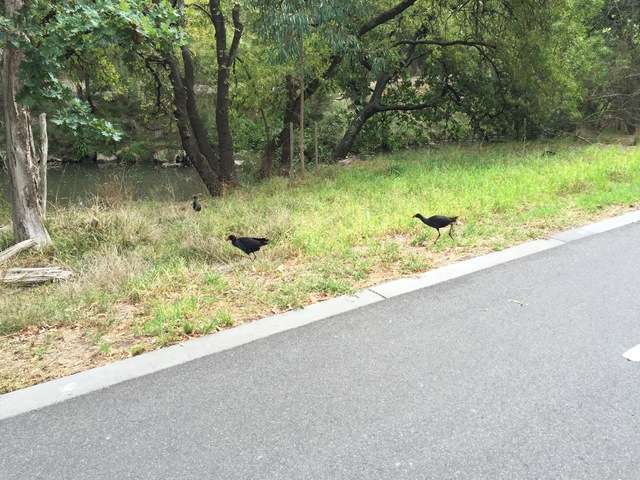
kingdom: Animalia
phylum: Chordata
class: Aves
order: Gruiformes
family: Rallidae
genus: Porphyrio
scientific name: Porphyrio melanotus
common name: Australasian swamphen
